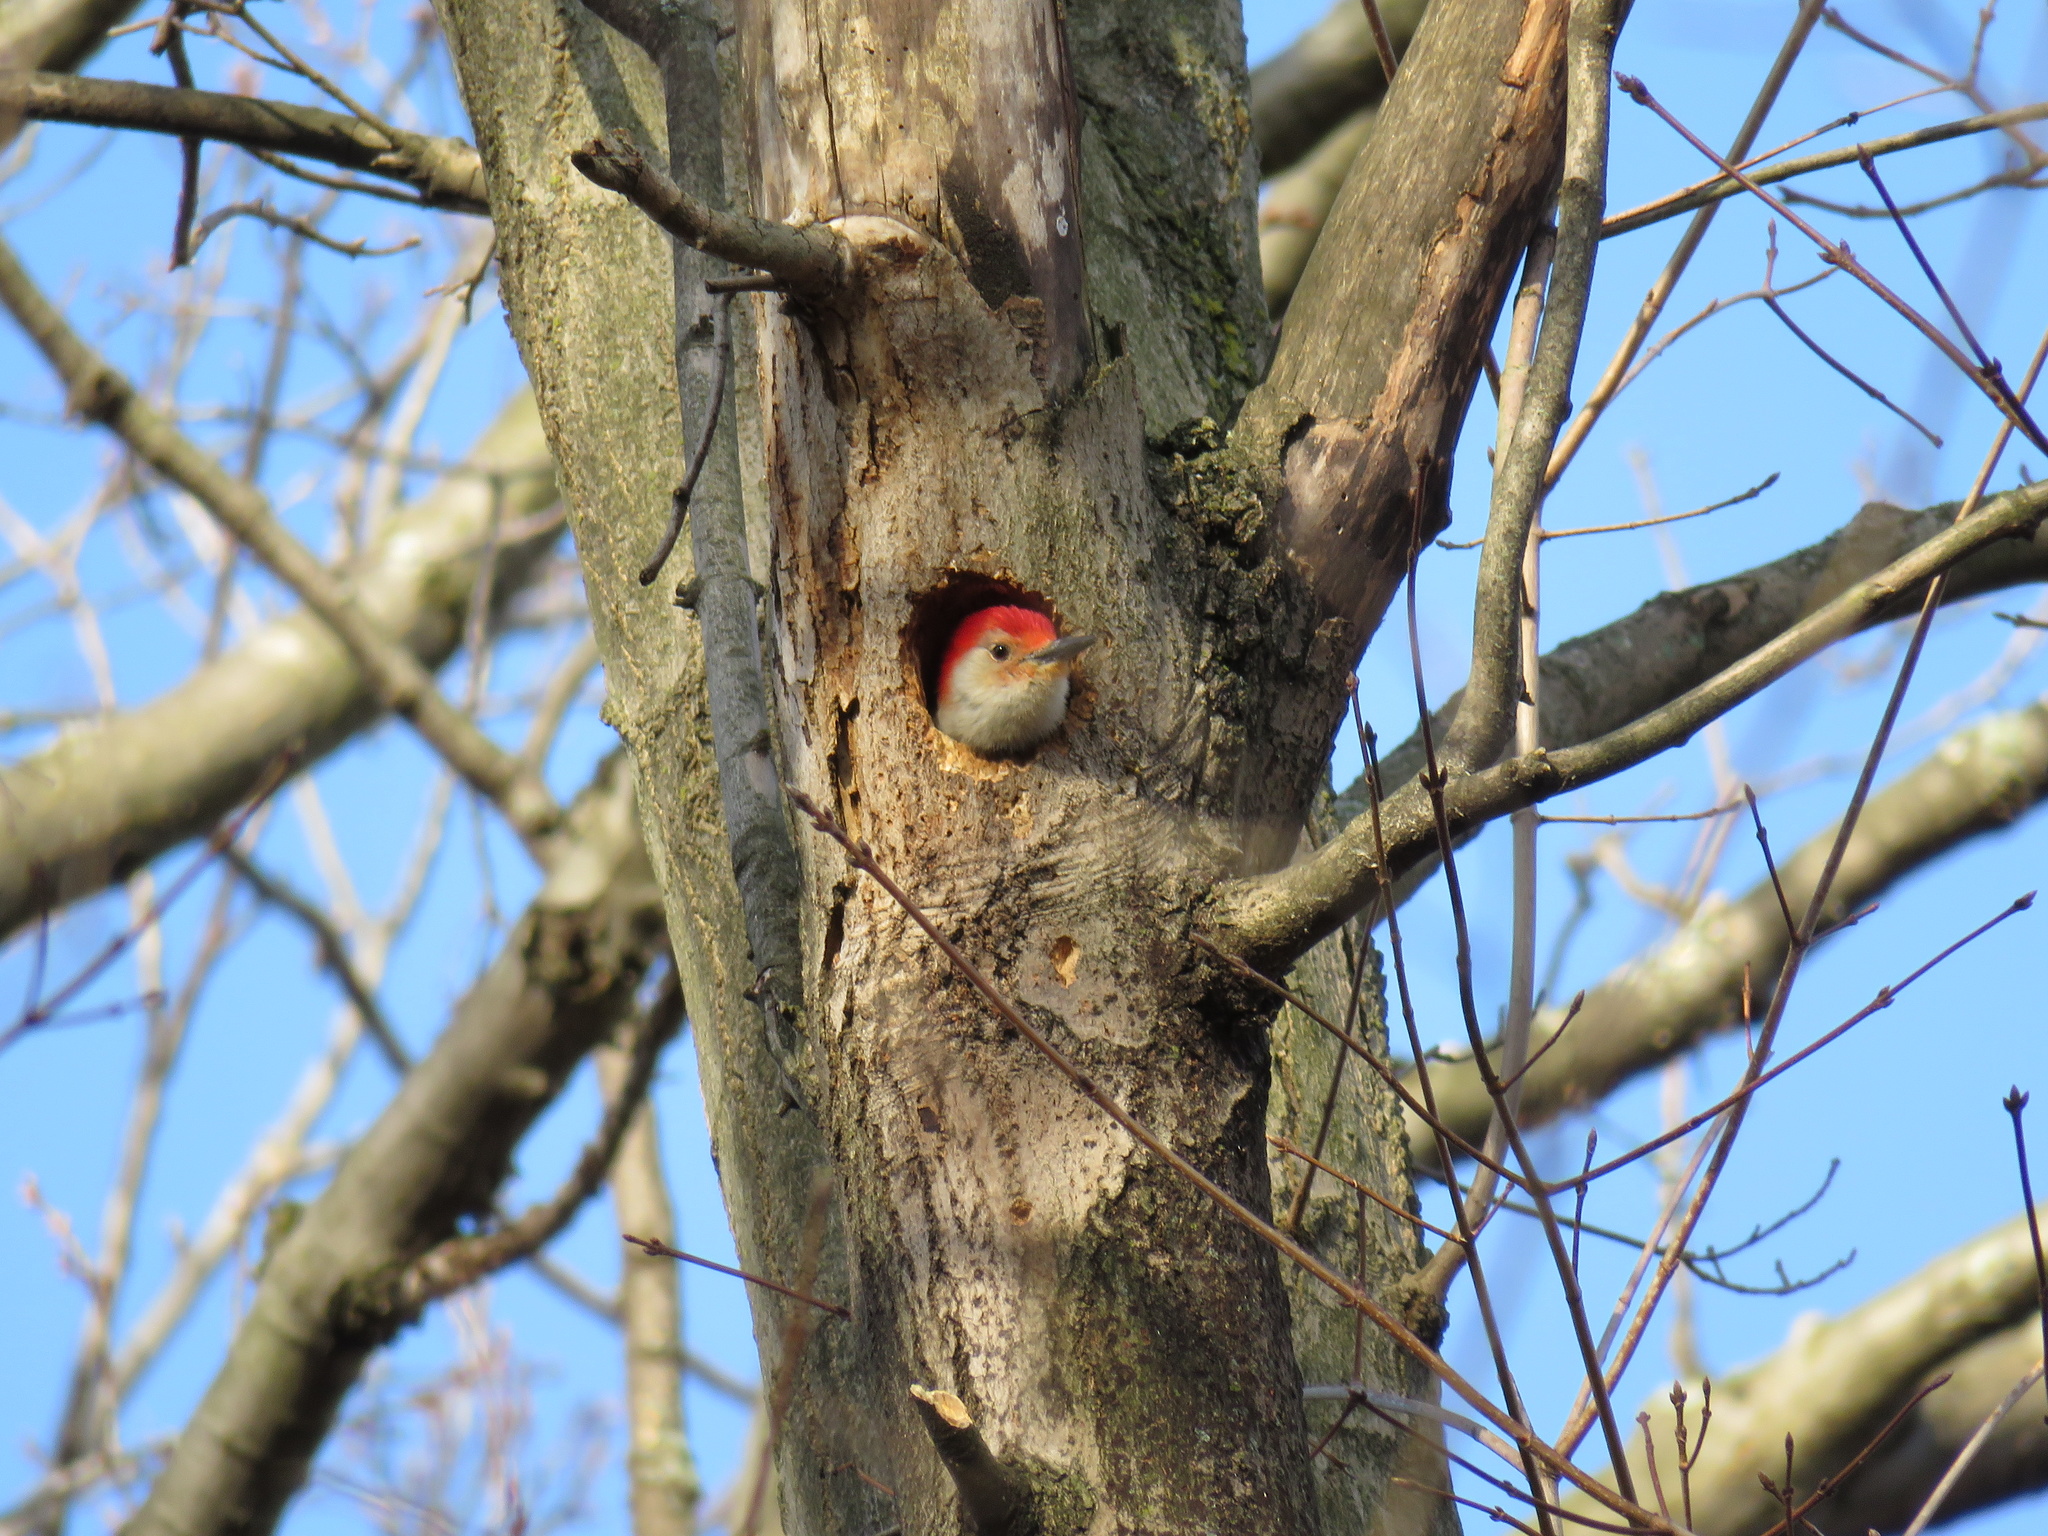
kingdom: Animalia
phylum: Chordata
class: Aves
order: Piciformes
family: Picidae
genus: Melanerpes
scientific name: Melanerpes carolinus
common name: Red-bellied woodpecker
